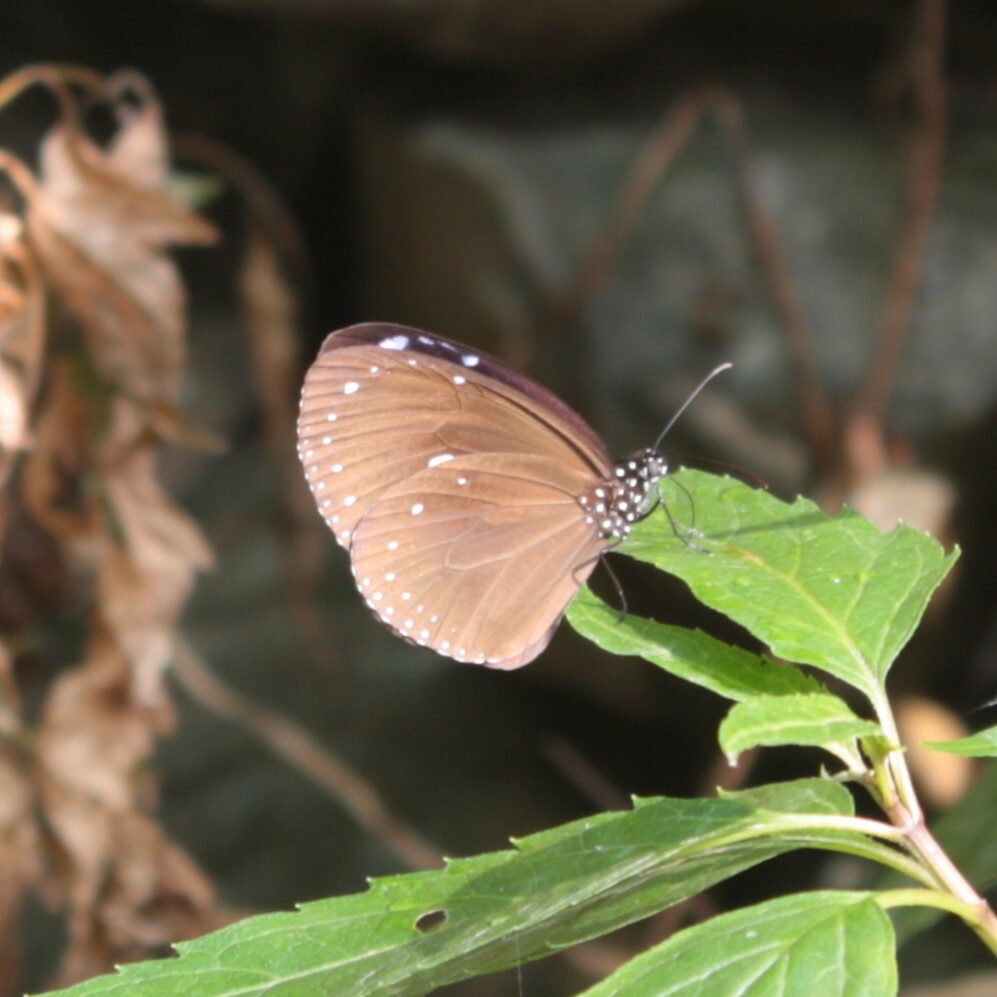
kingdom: Animalia
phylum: Arthropoda
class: Insecta
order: Lepidoptera
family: Nymphalidae
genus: Euploea
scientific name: Euploea tulliolus
